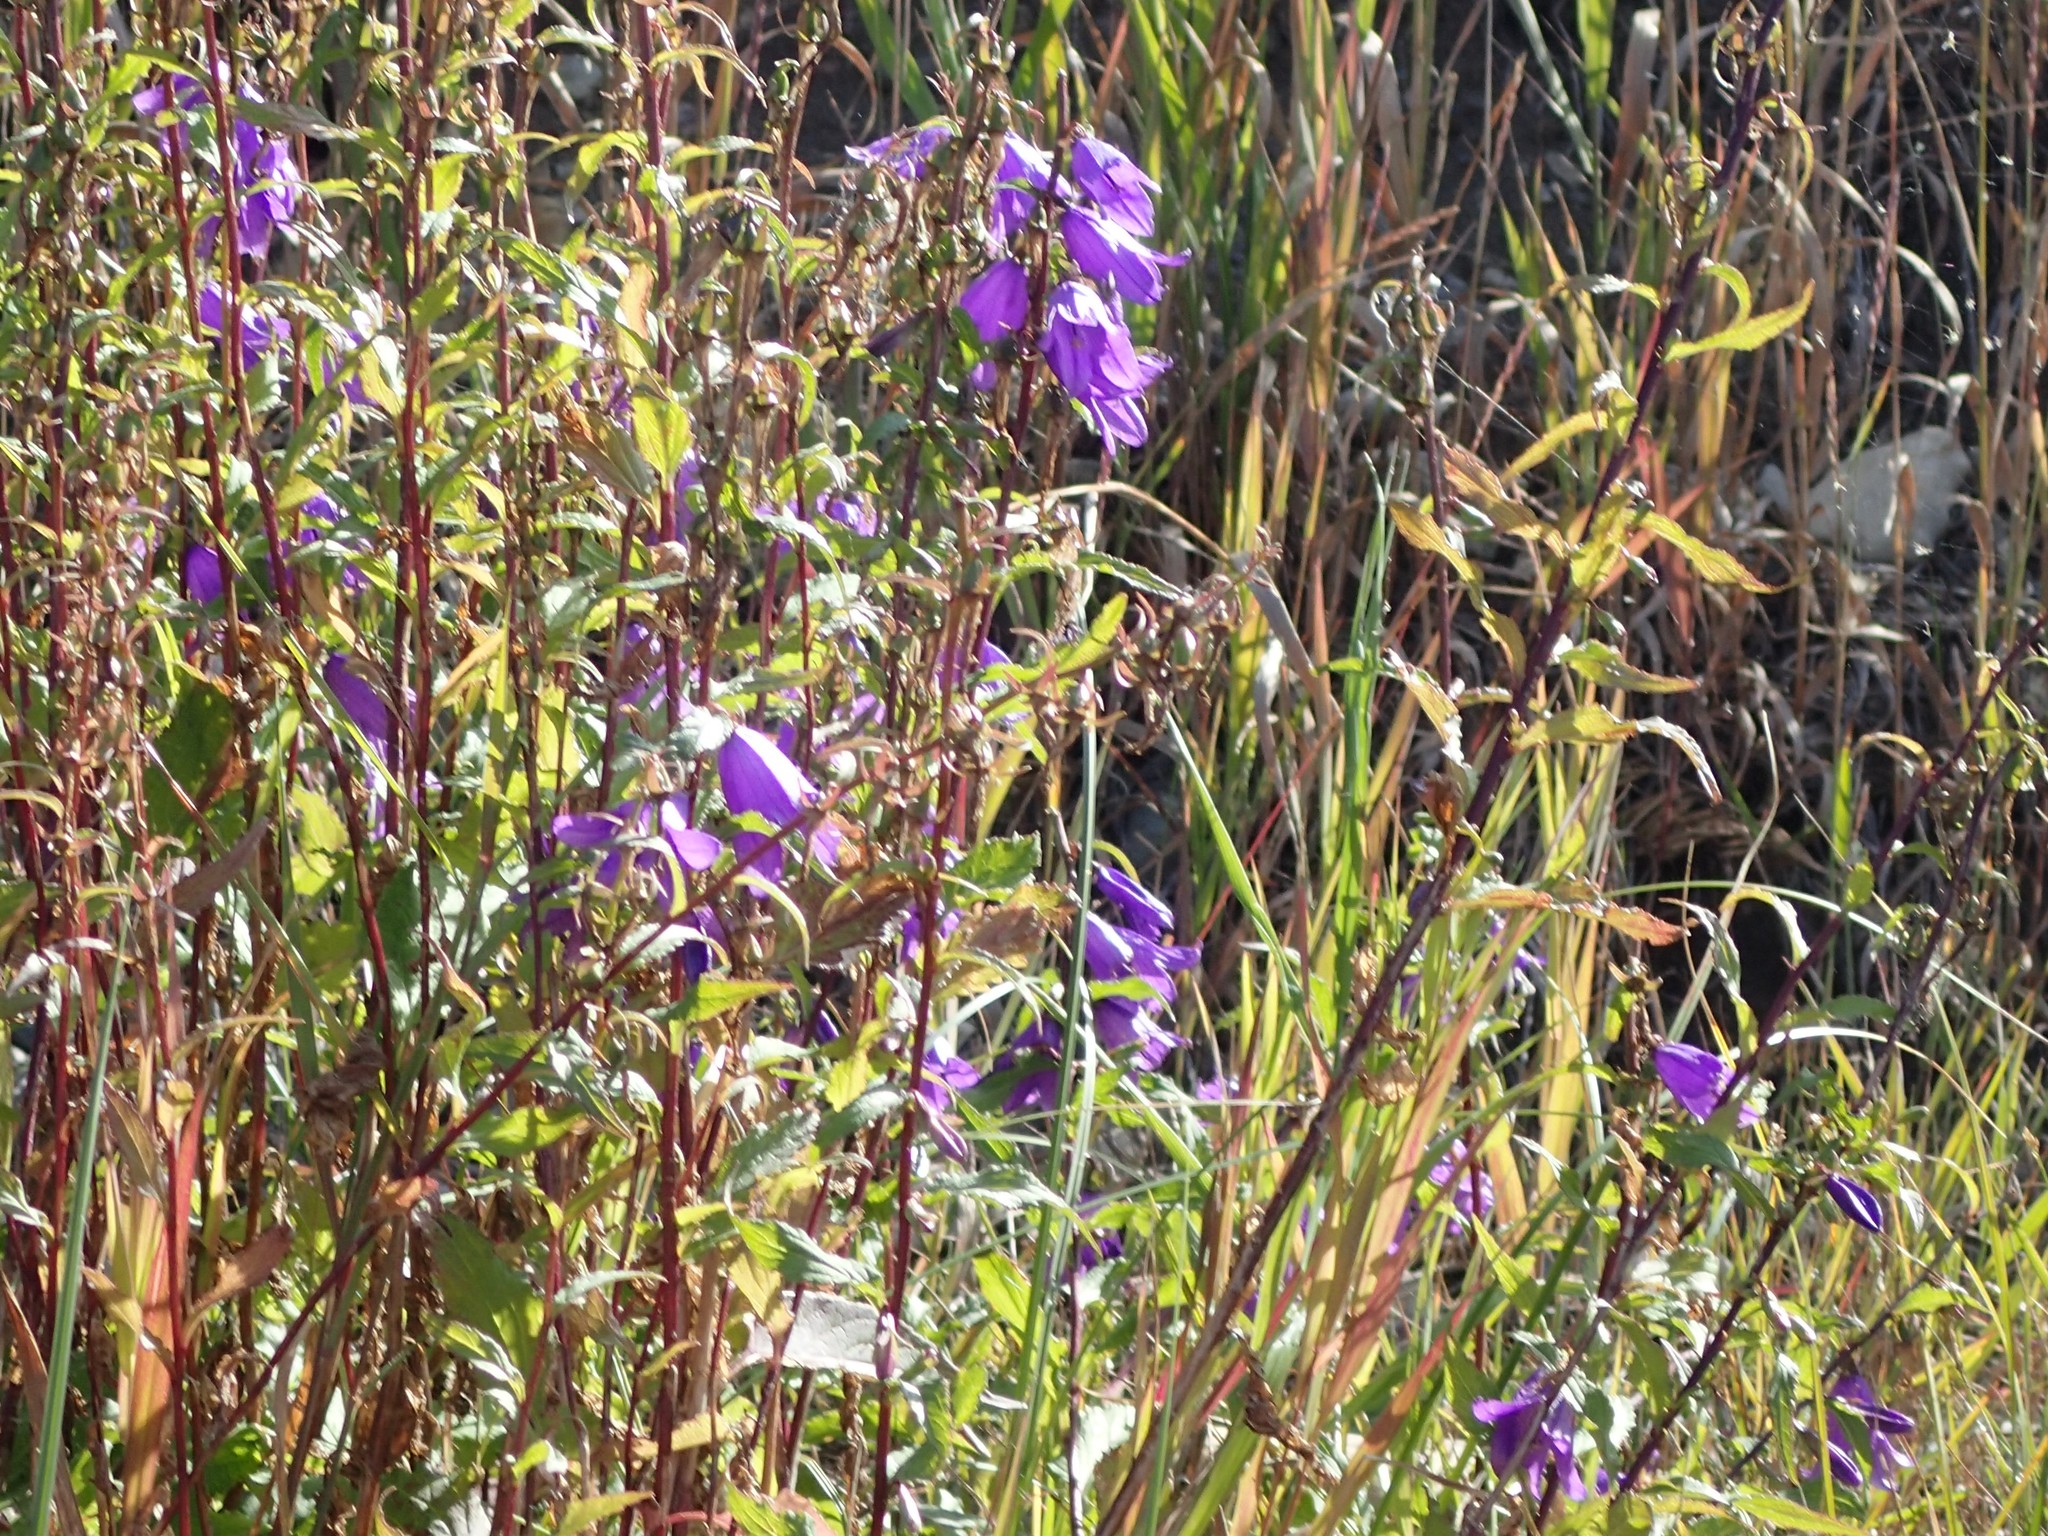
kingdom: Plantae
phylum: Tracheophyta
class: Magnoliopsida
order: Asterales
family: Campanulaceae
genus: Campanula
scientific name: Campanula rapunculoides
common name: Creeping bellflower
